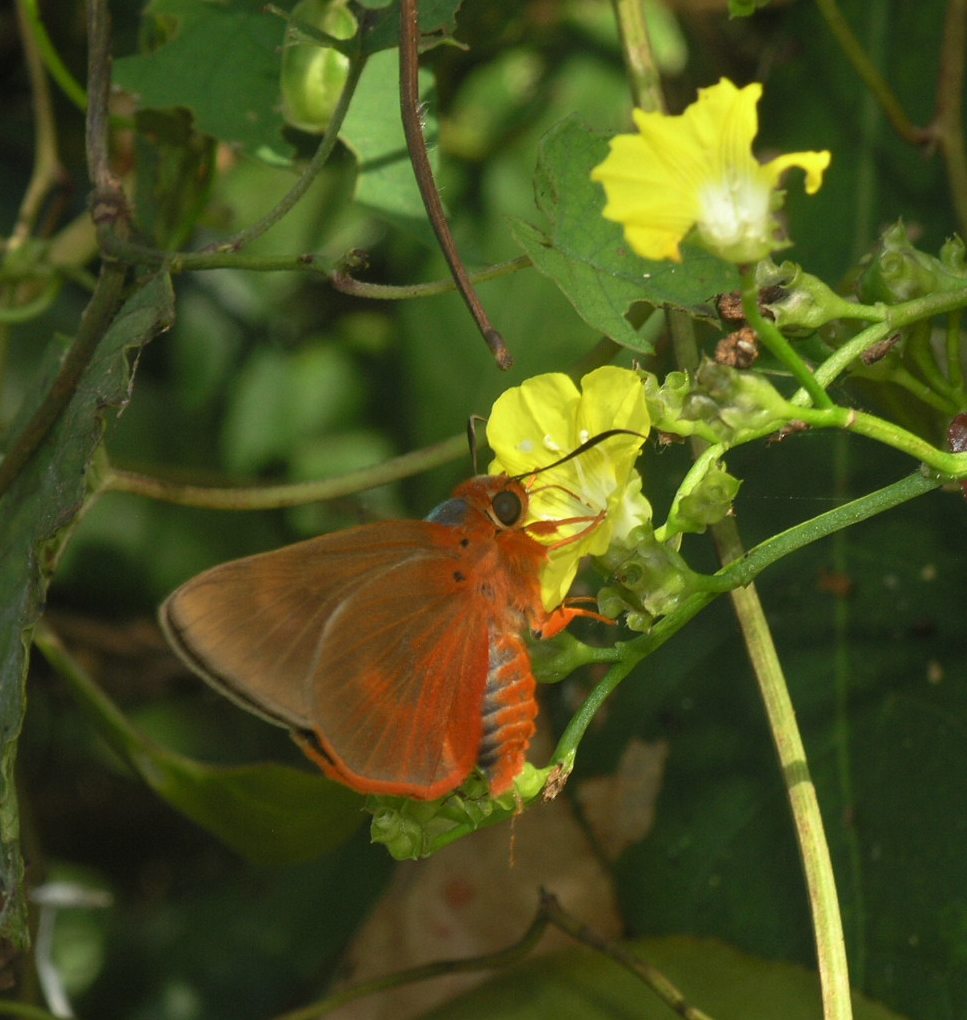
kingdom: Animalia
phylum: Arthropoda
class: Insecta
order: Lepidoptera
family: Hesperiidae
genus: Bibasis
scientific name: Bibasis oedipodea
